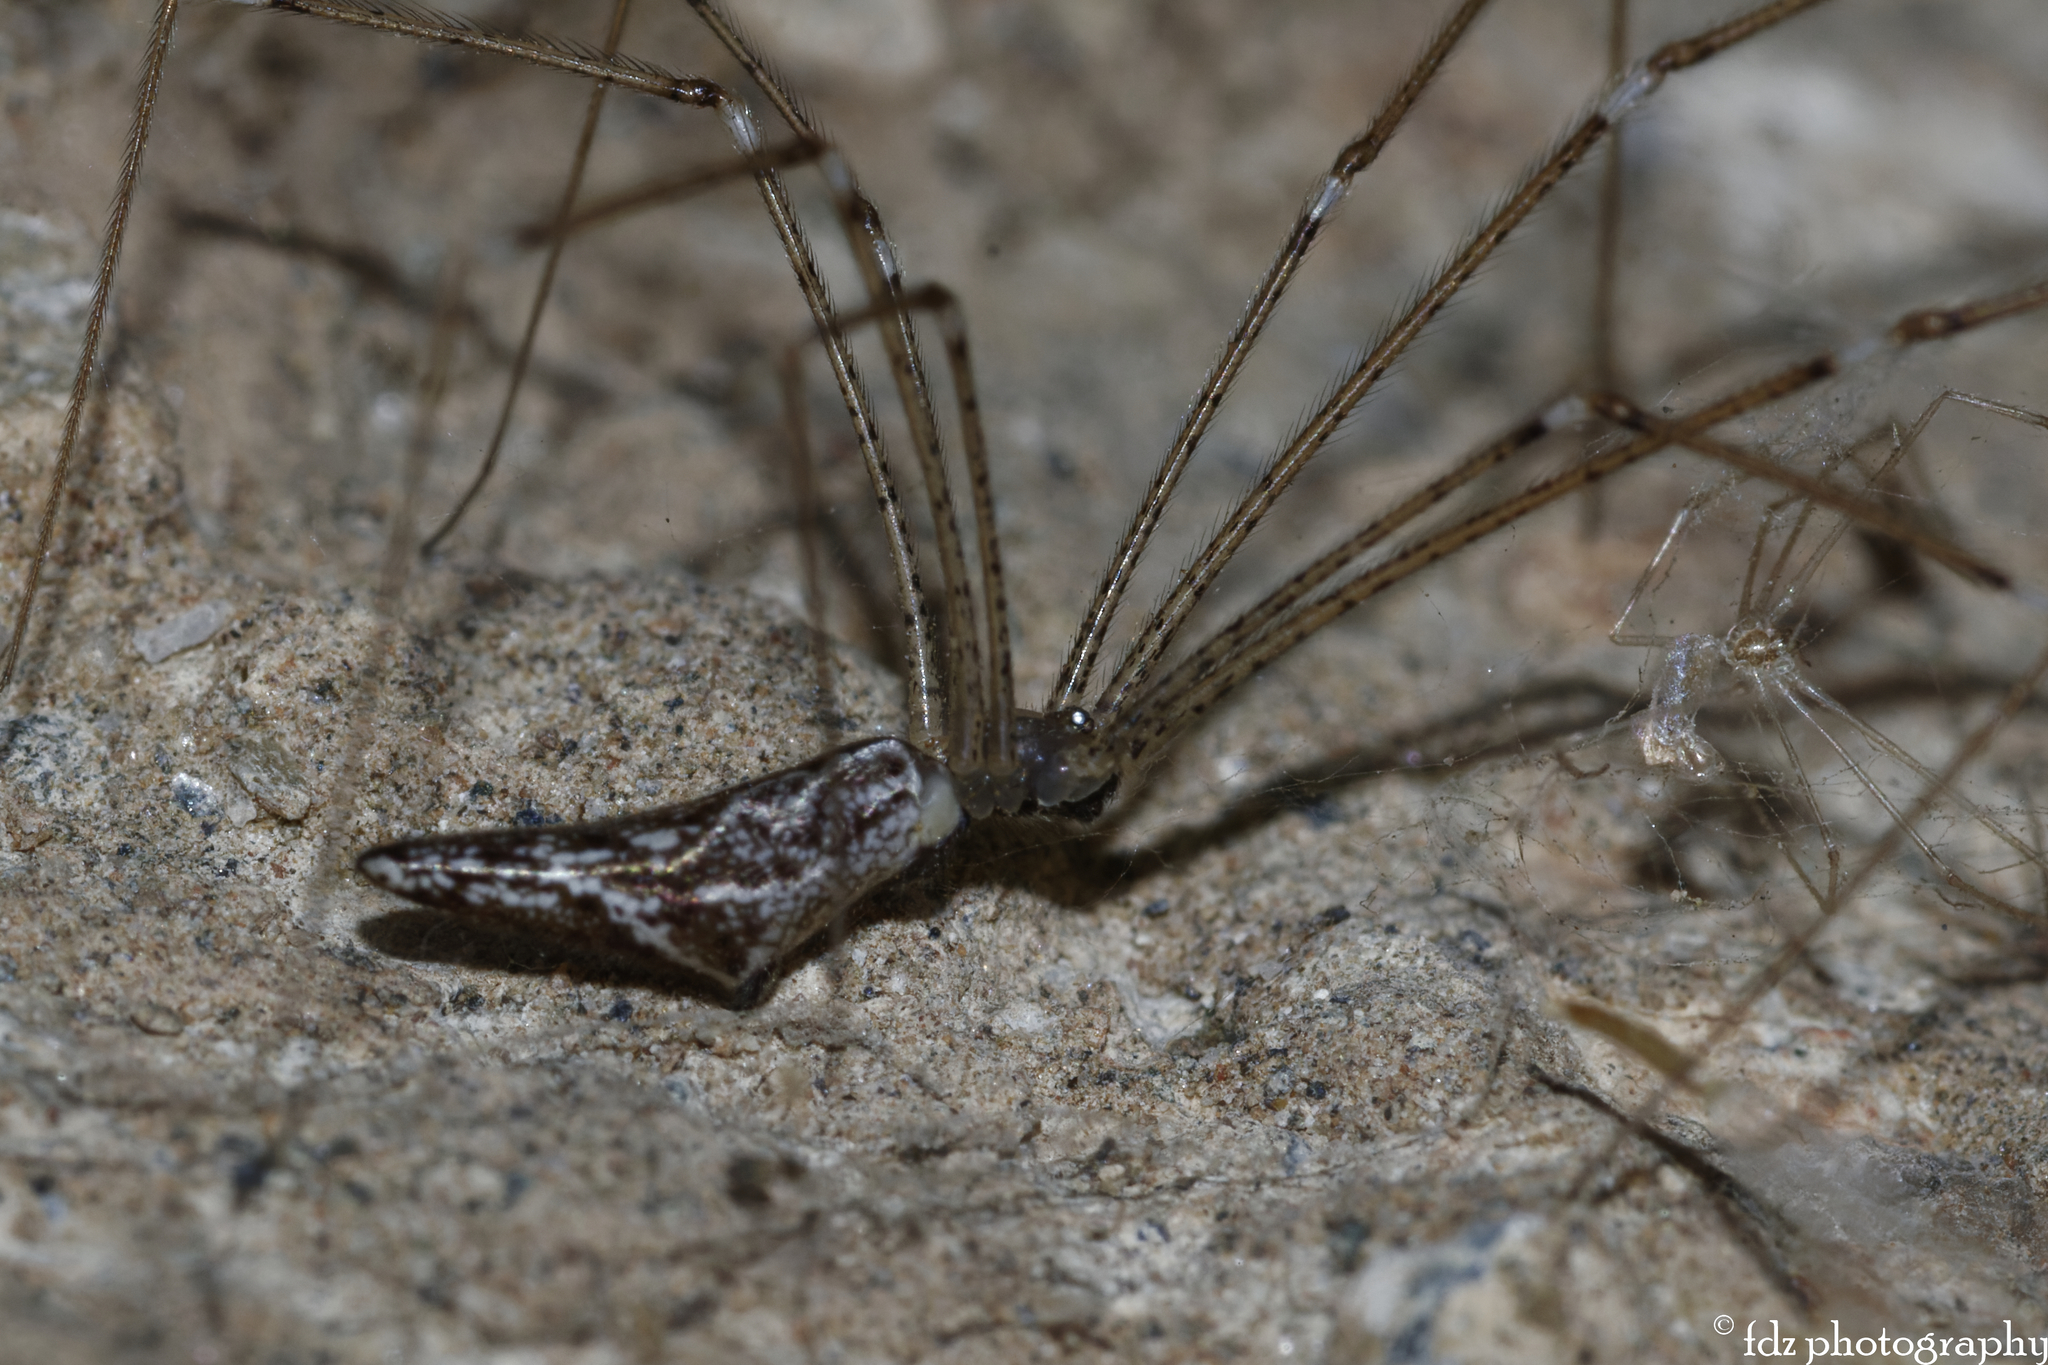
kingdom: Animalia
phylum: Arthropoda
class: Arachnida
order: Araneae
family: Pholcidae
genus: Holocnemus
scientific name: Holocnemus caudatus
